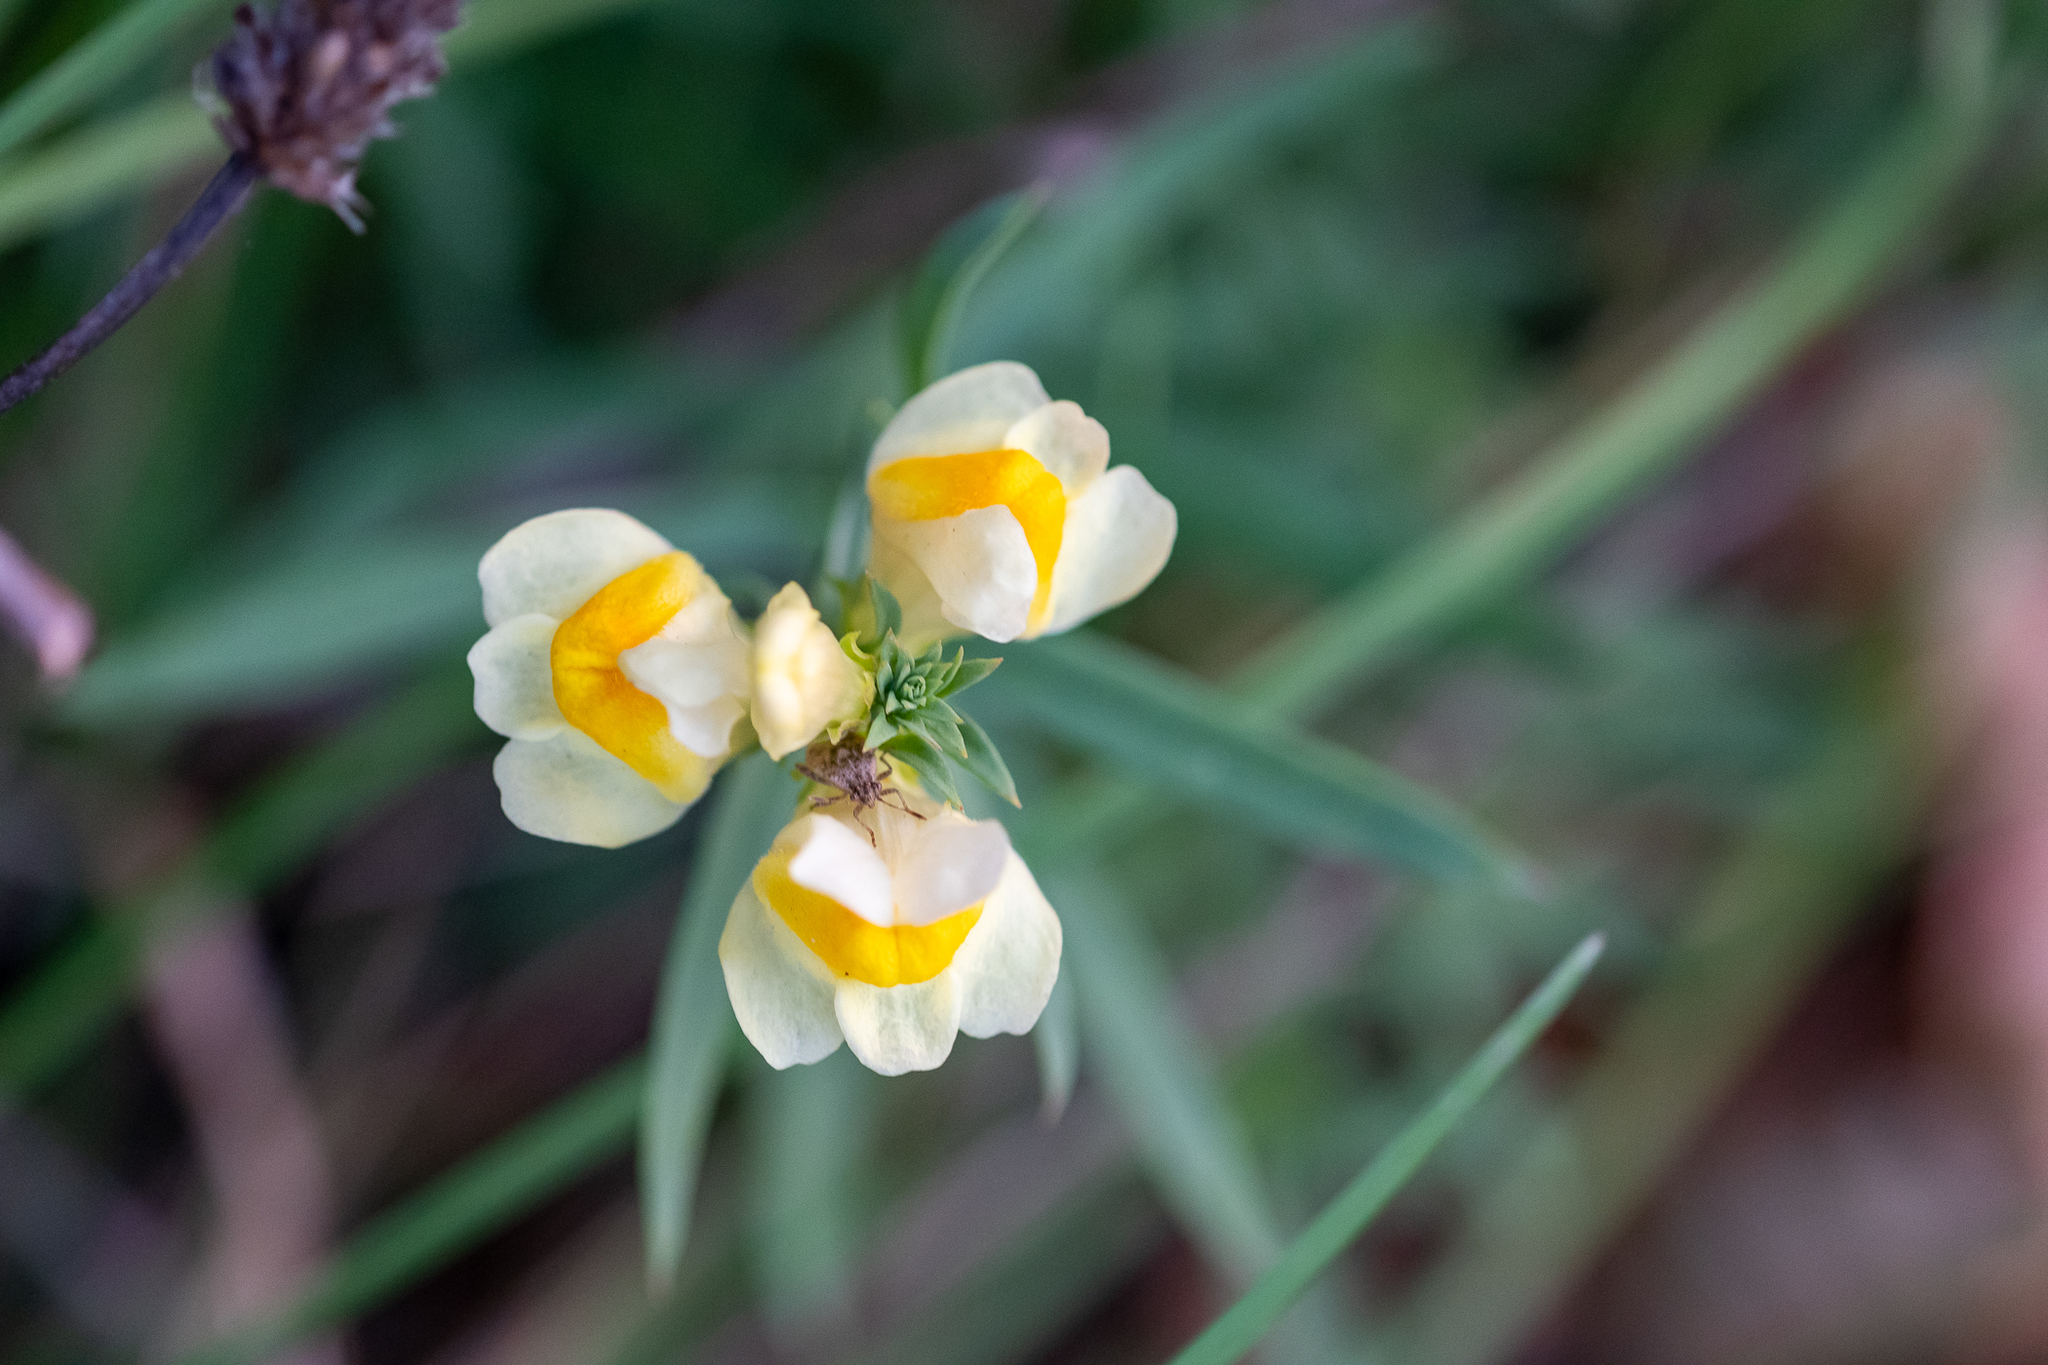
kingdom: Plantae
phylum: Tracheophyta
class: Magnoliopsida
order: Lamiales
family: Plantaginaceae
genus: Linaria
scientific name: Linaria vulgaris
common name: Butter and eggs
